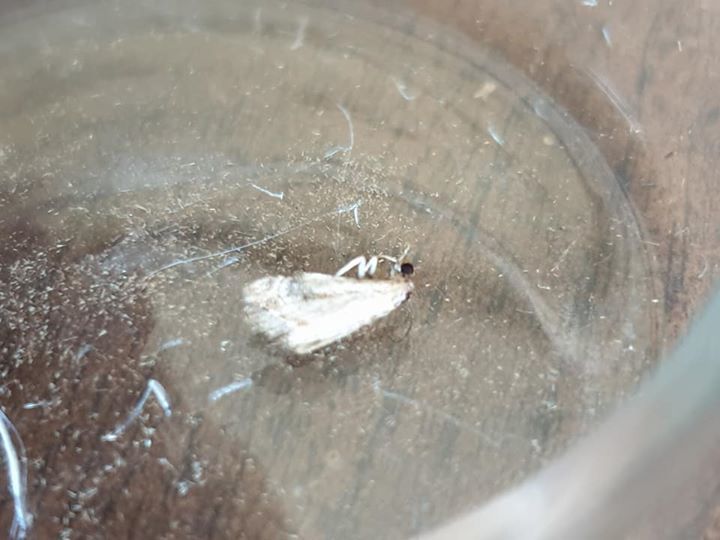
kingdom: Animalia
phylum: Arthropoda
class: Insecta
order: Lepidoptera
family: Crambidae
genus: Gadira
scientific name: Gadira acerella
